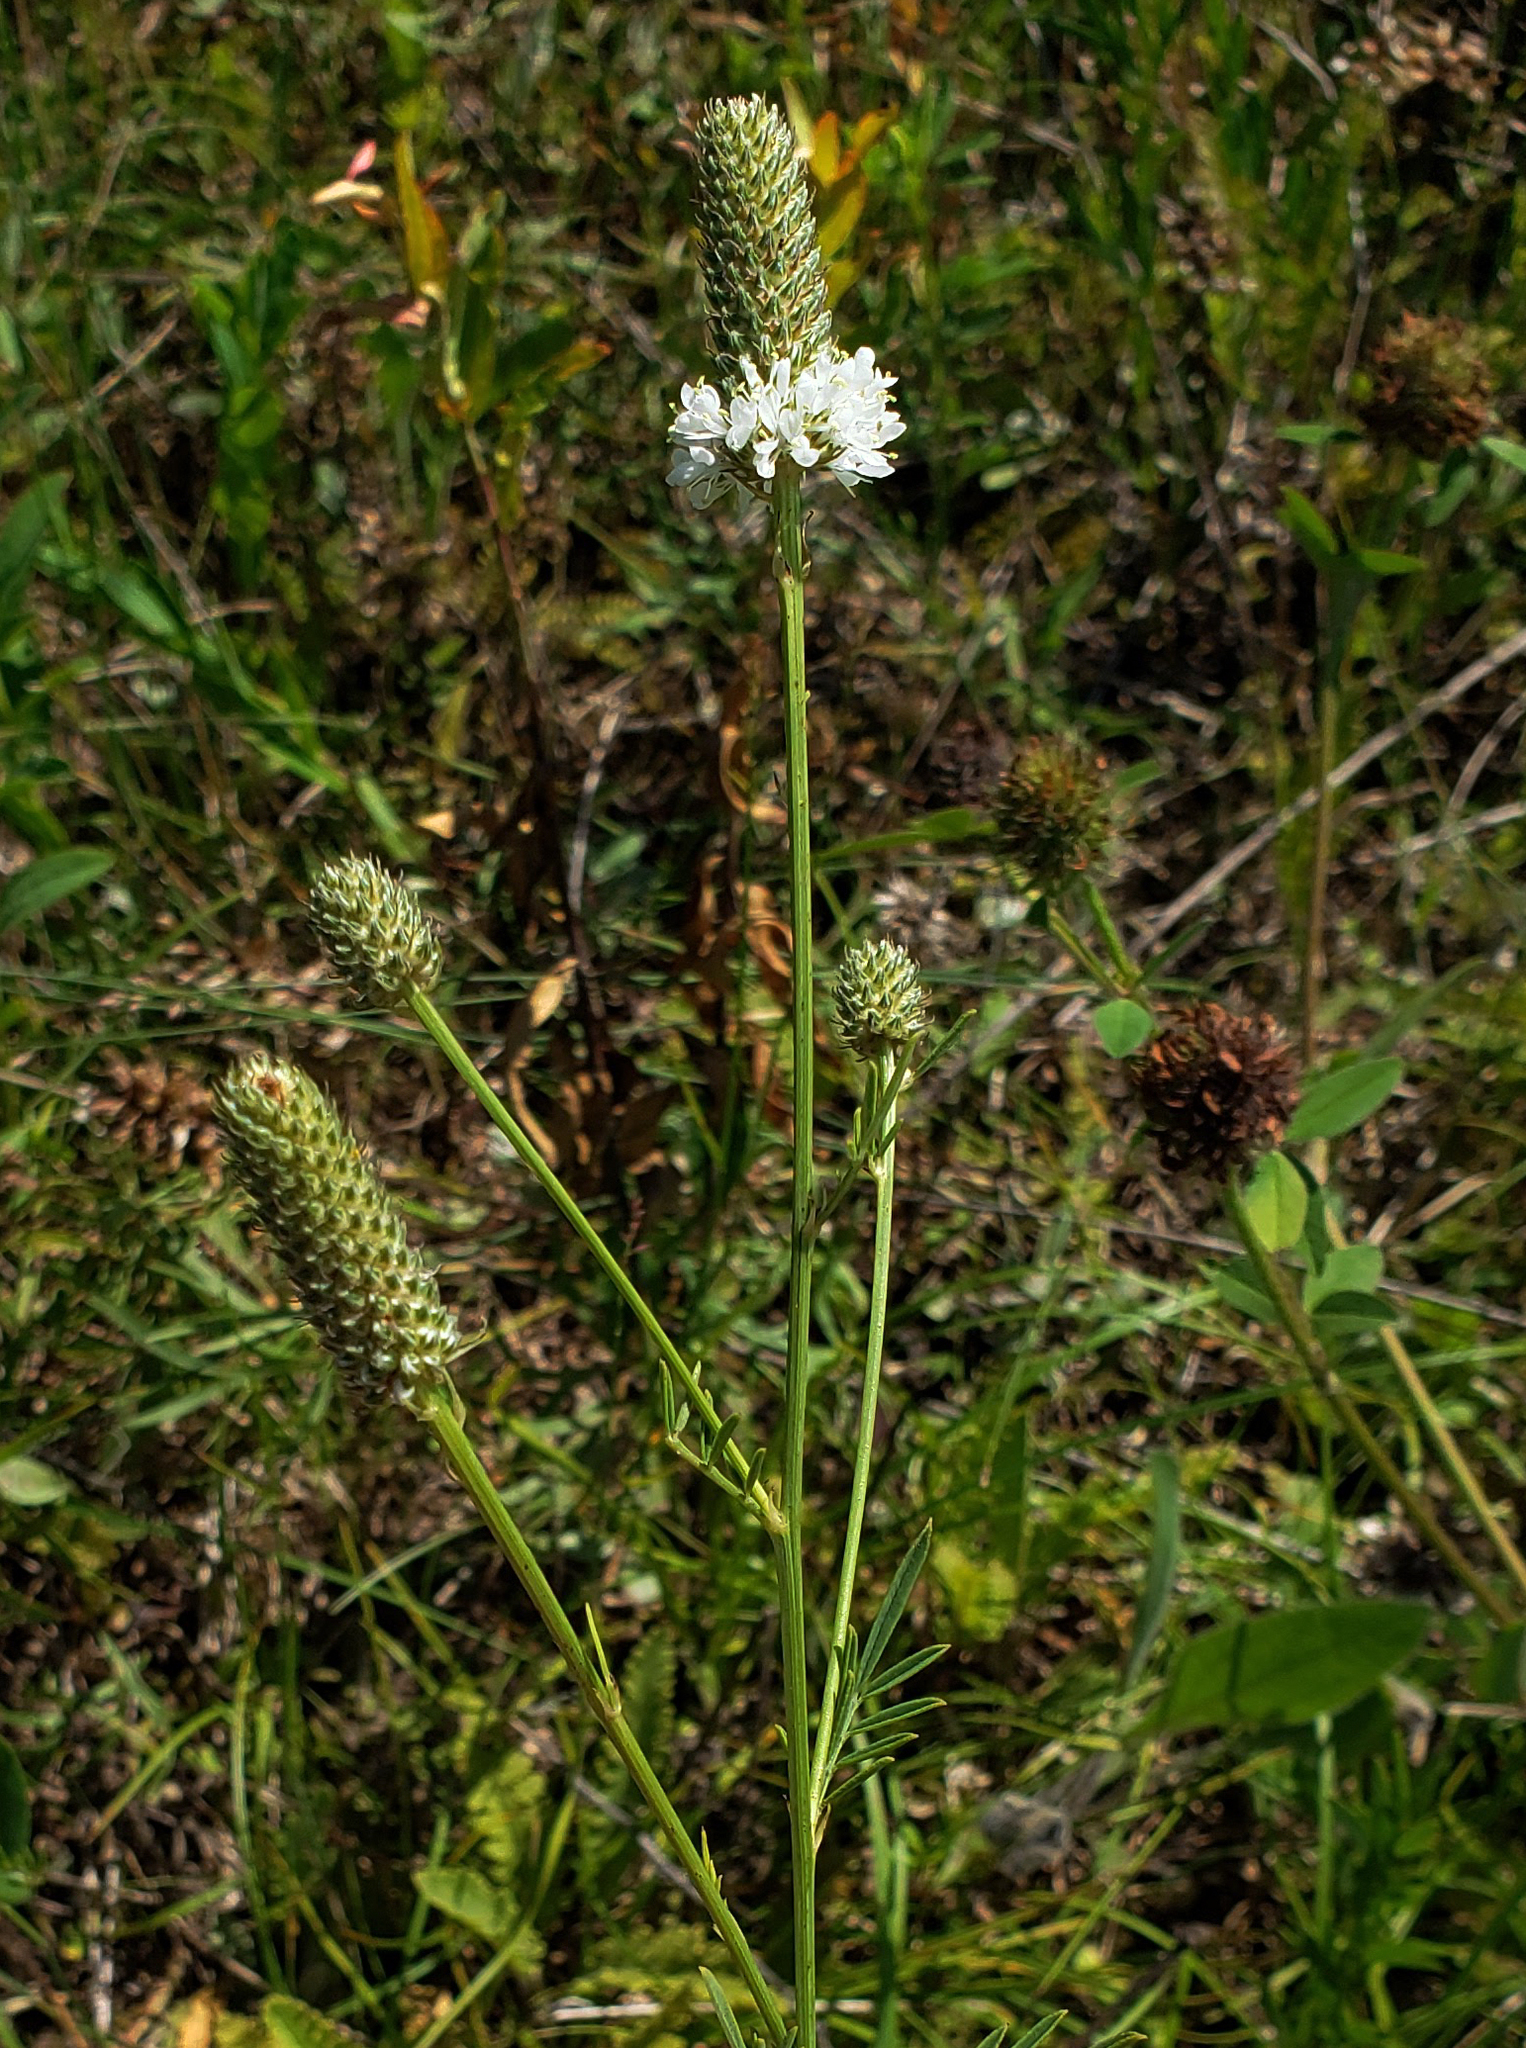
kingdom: Plantae
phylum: Tracheophyta
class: Magnoliopsida
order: Fabales
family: Fabaceae
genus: Dalea
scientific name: Dalea candida
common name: White prairie-clover
